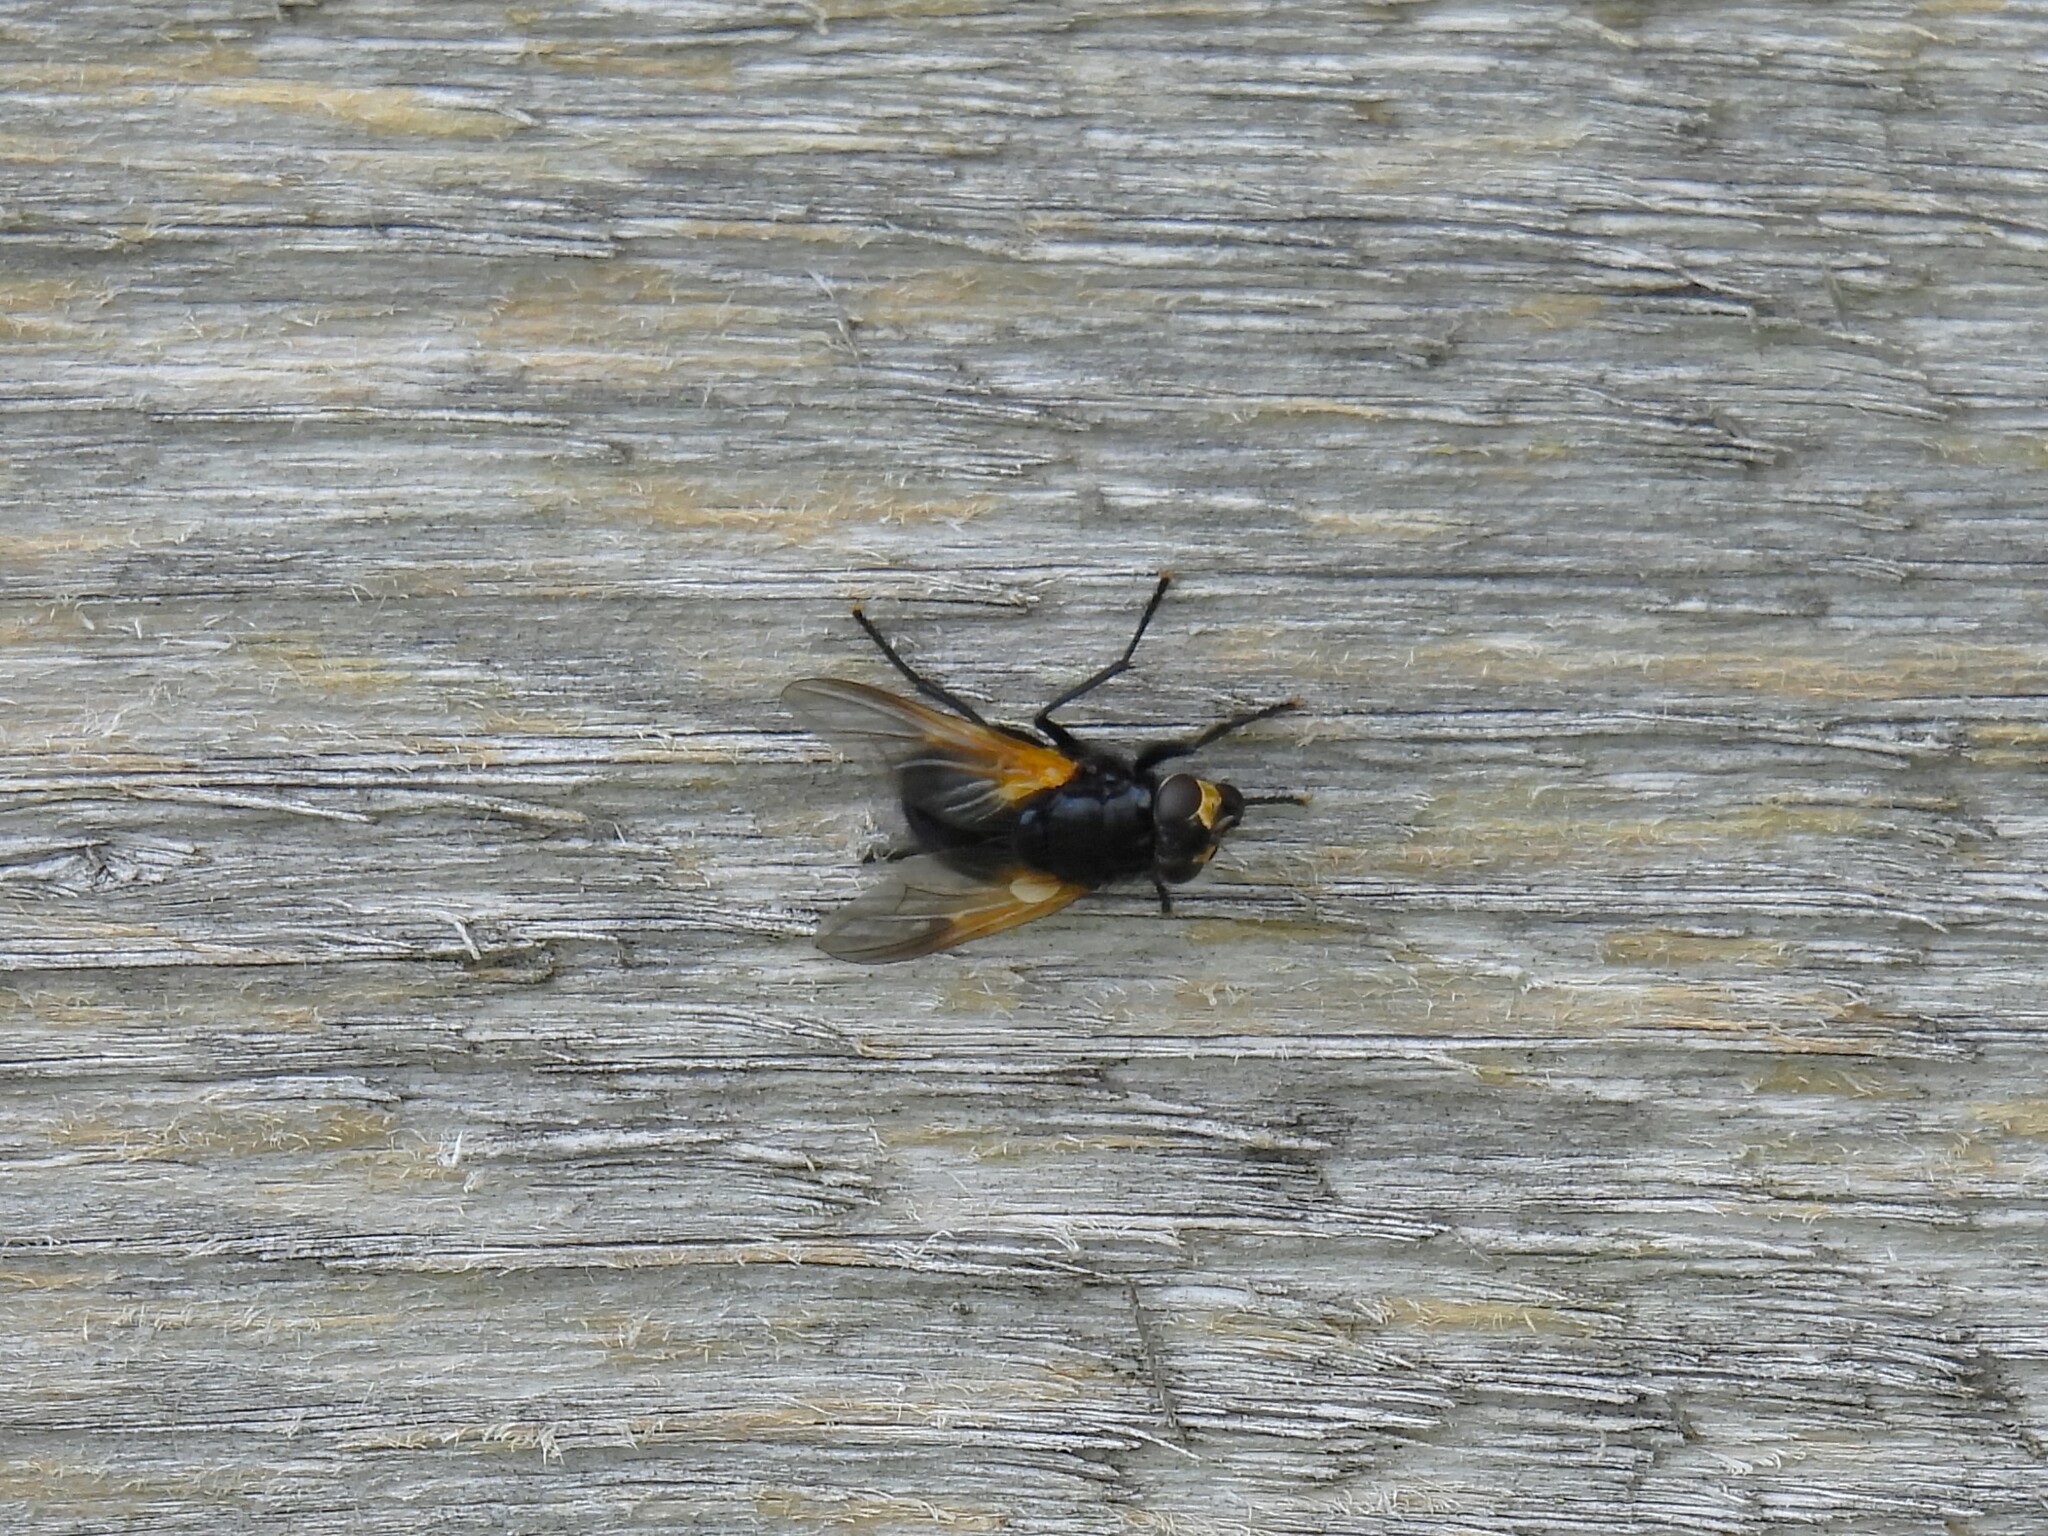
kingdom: Animalia
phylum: Arthropoda
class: Insecta
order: Diptera
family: Muscidae
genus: Mesembrina
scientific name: Mesembrina meridiana
